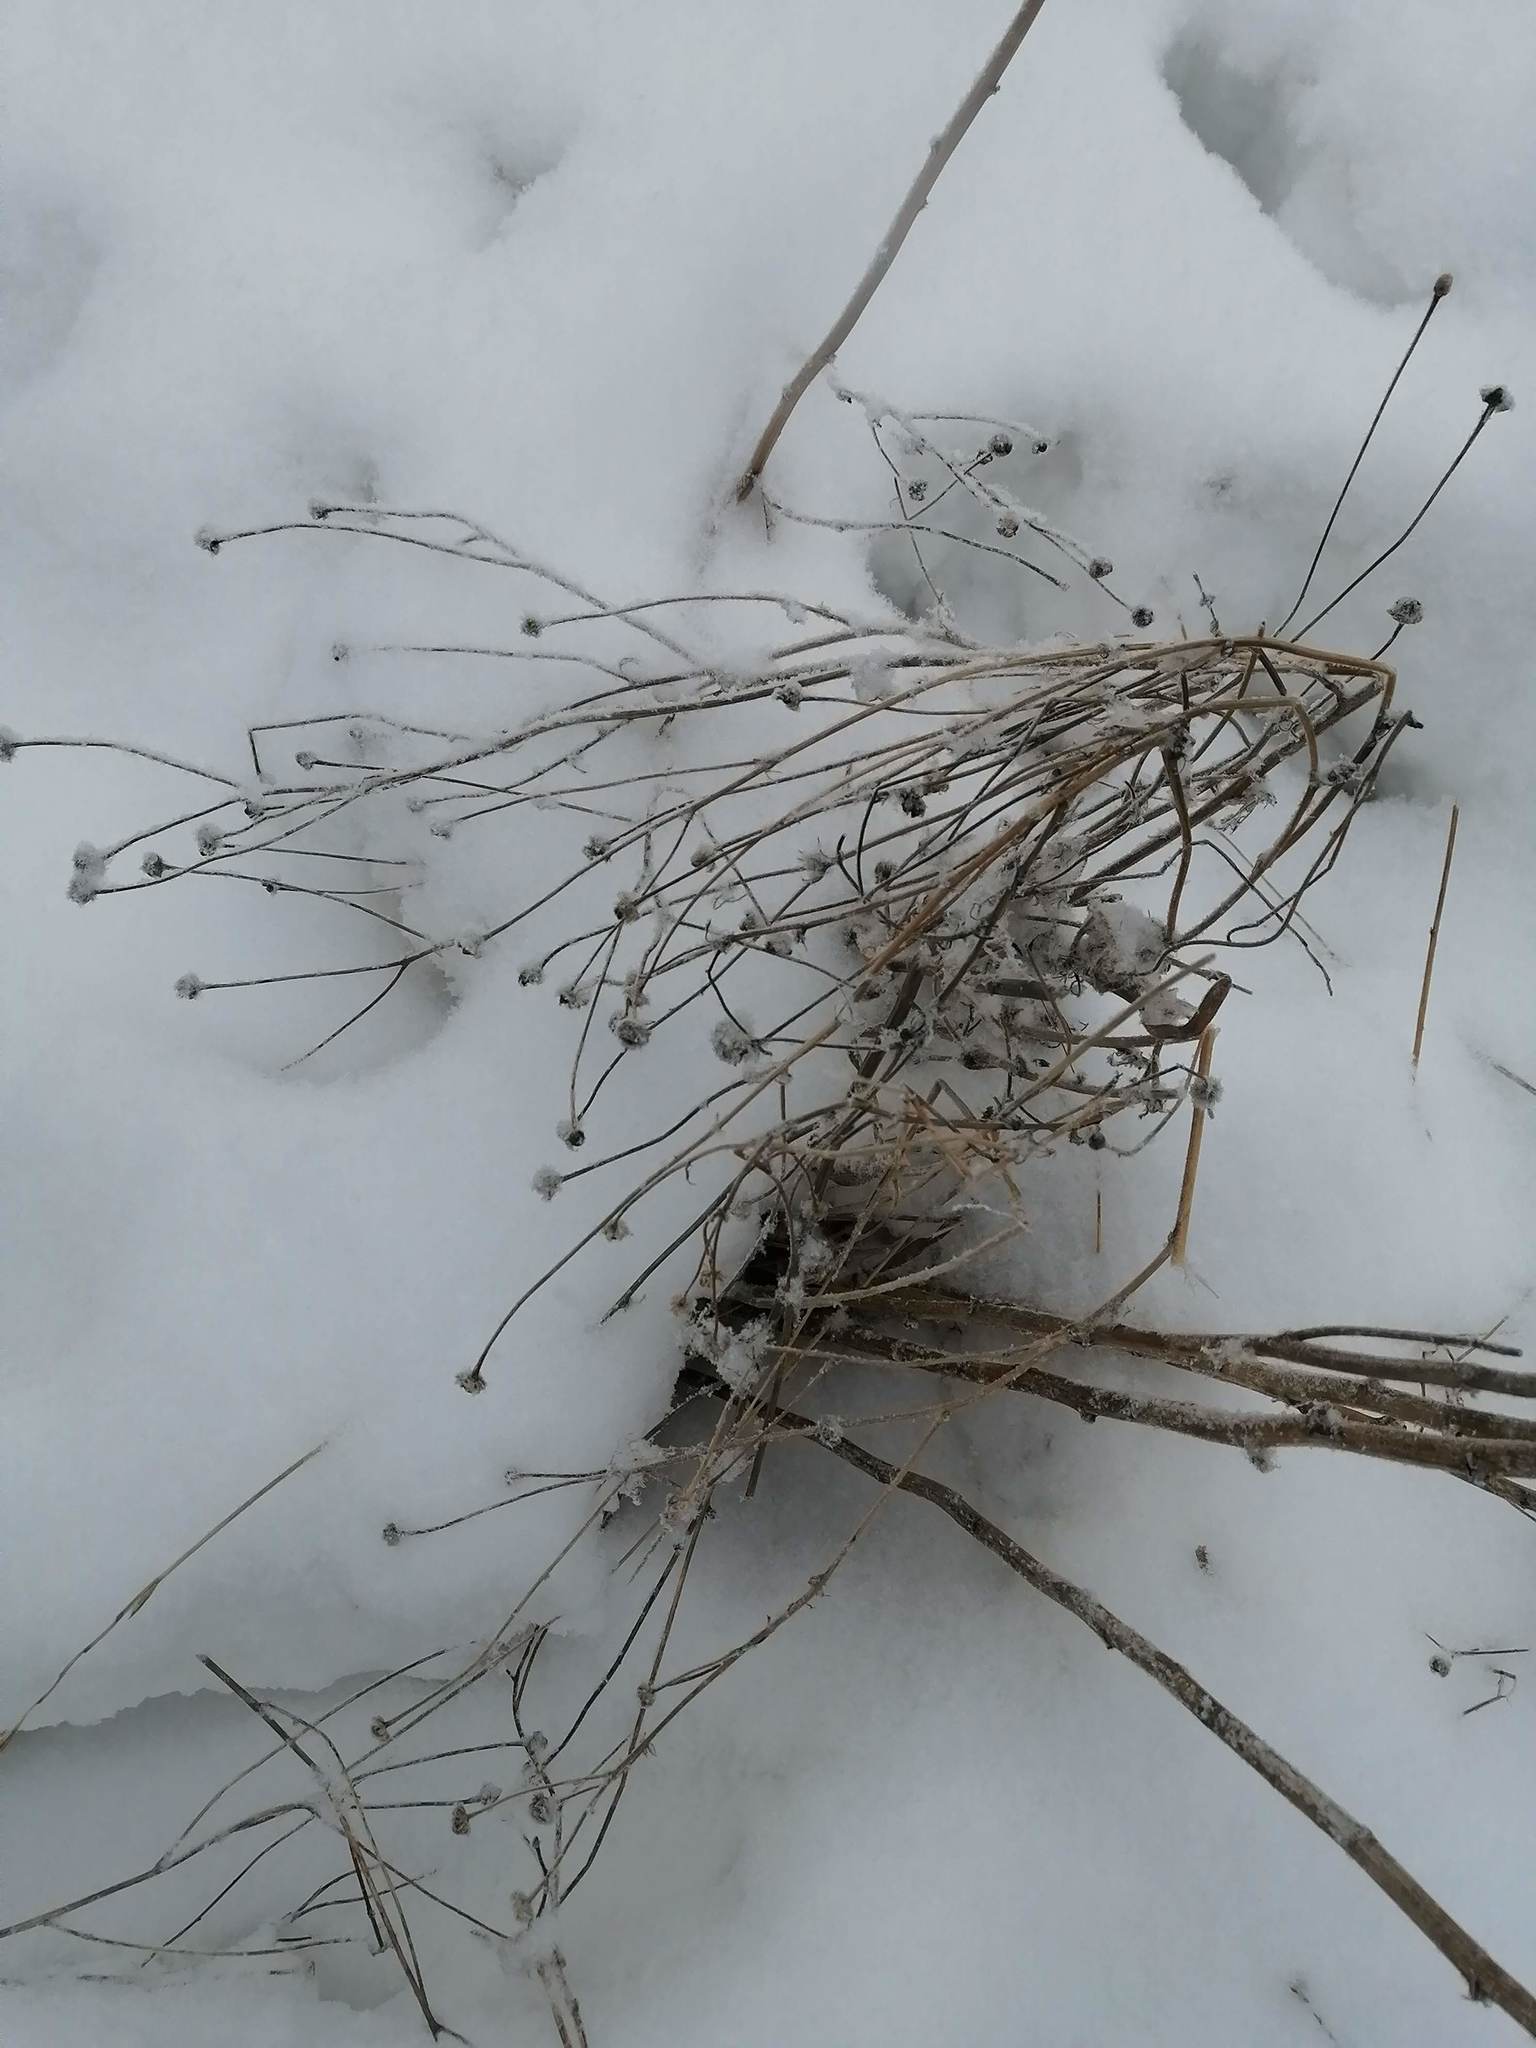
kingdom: Plantae
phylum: Tracheophyta
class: Magnoliopsida
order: Asterales
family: Asteraceae
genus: Tripleurospermum
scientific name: Tripleurospermum inodorum
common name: Scentless mayweed
